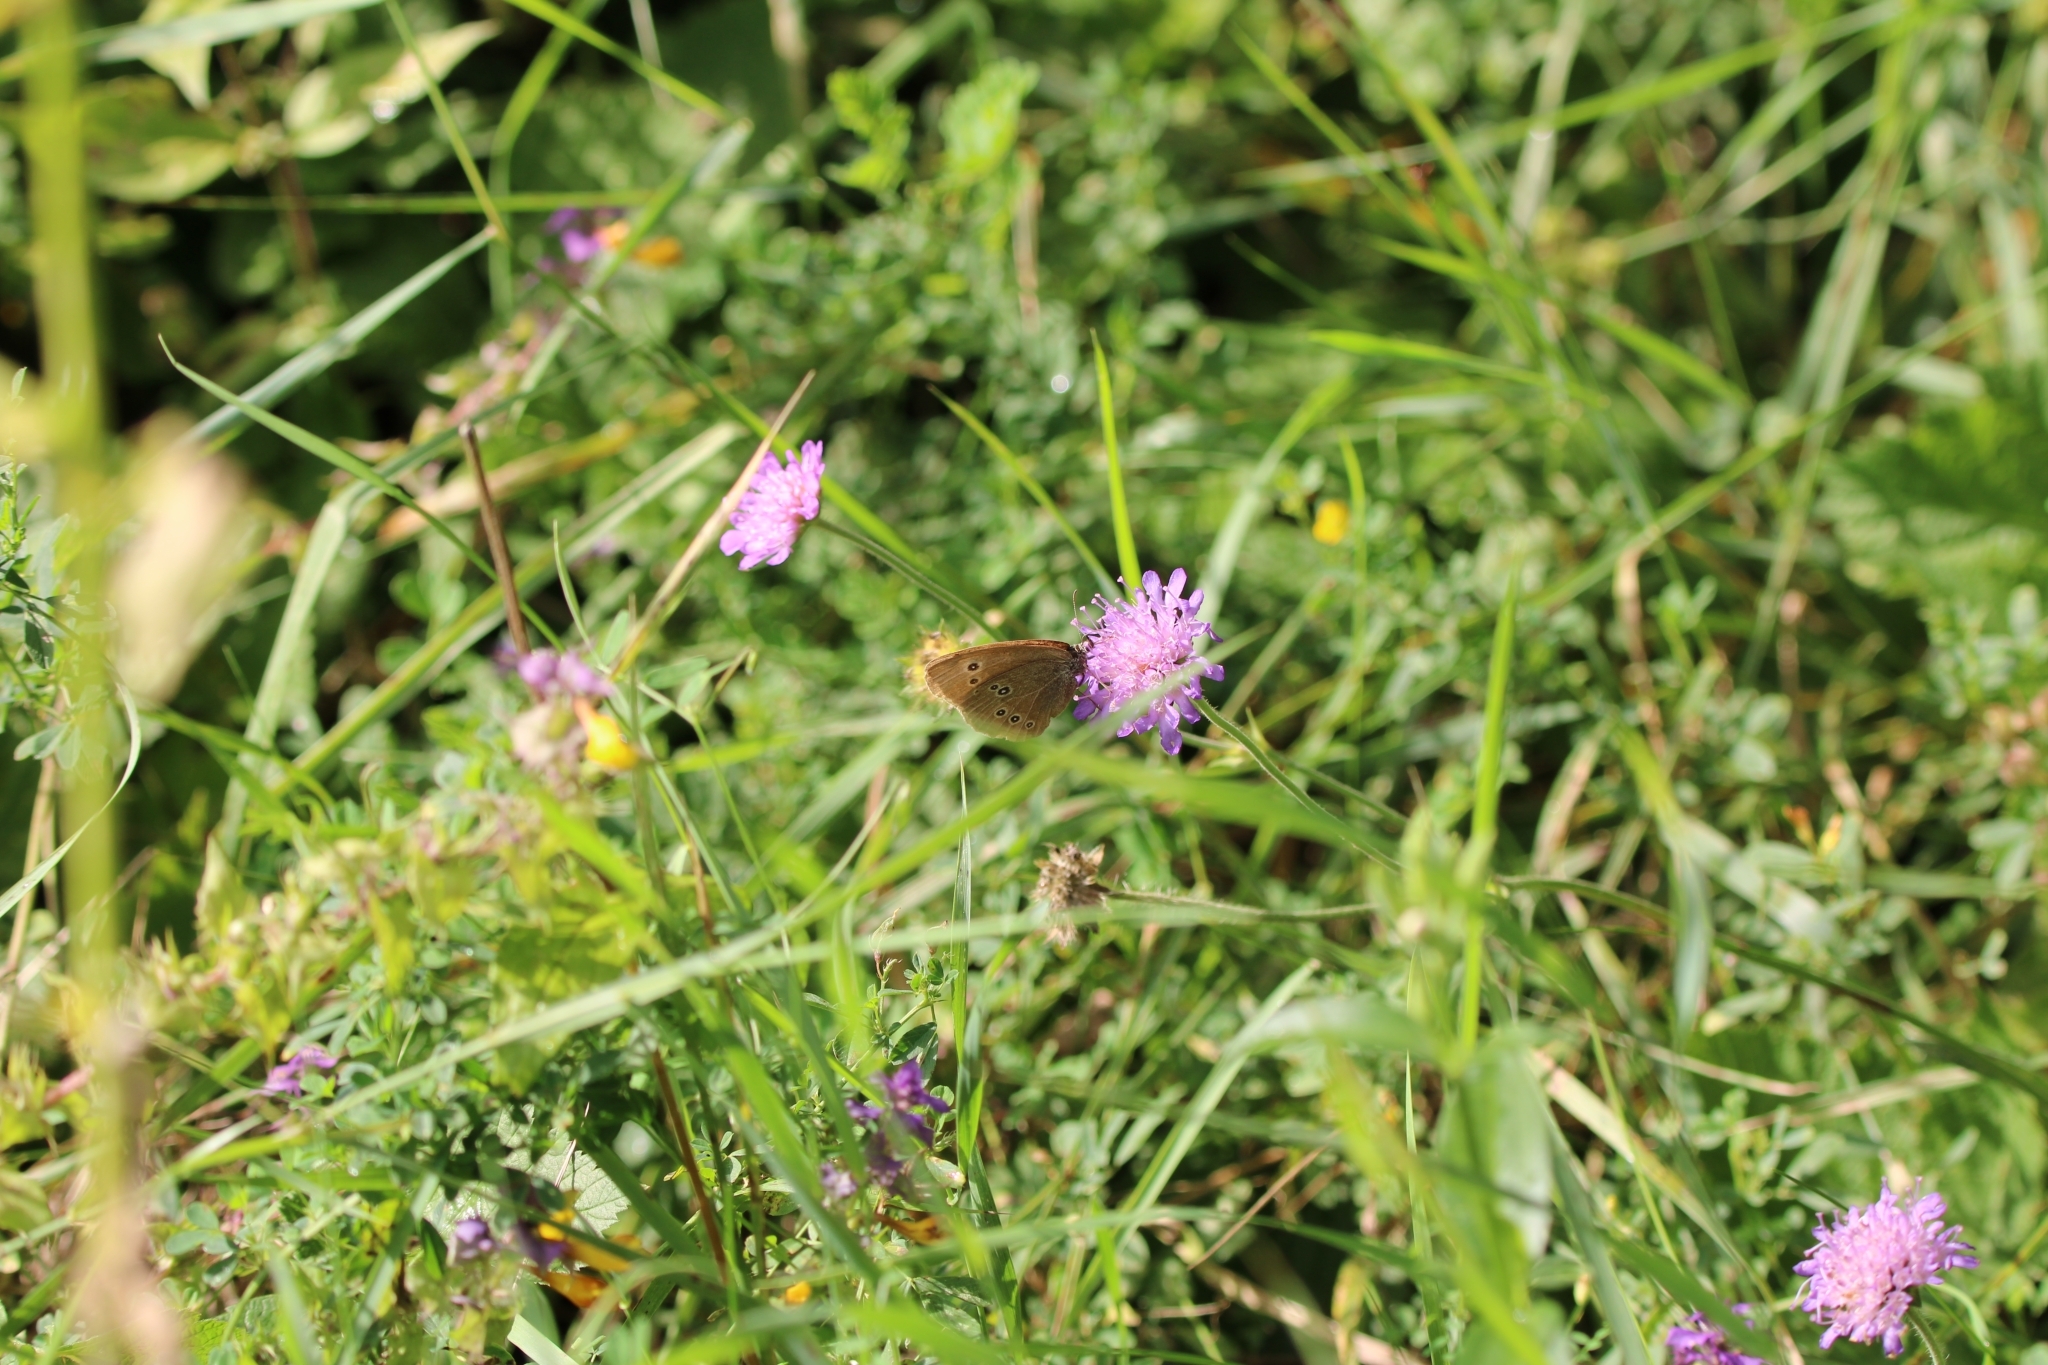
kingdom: Animalia
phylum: Arthropoda
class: Insecta
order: Lepidoptera
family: Nymphalidae
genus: Aphantopus
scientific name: Aphantopus hyperantus
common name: Ringlet
